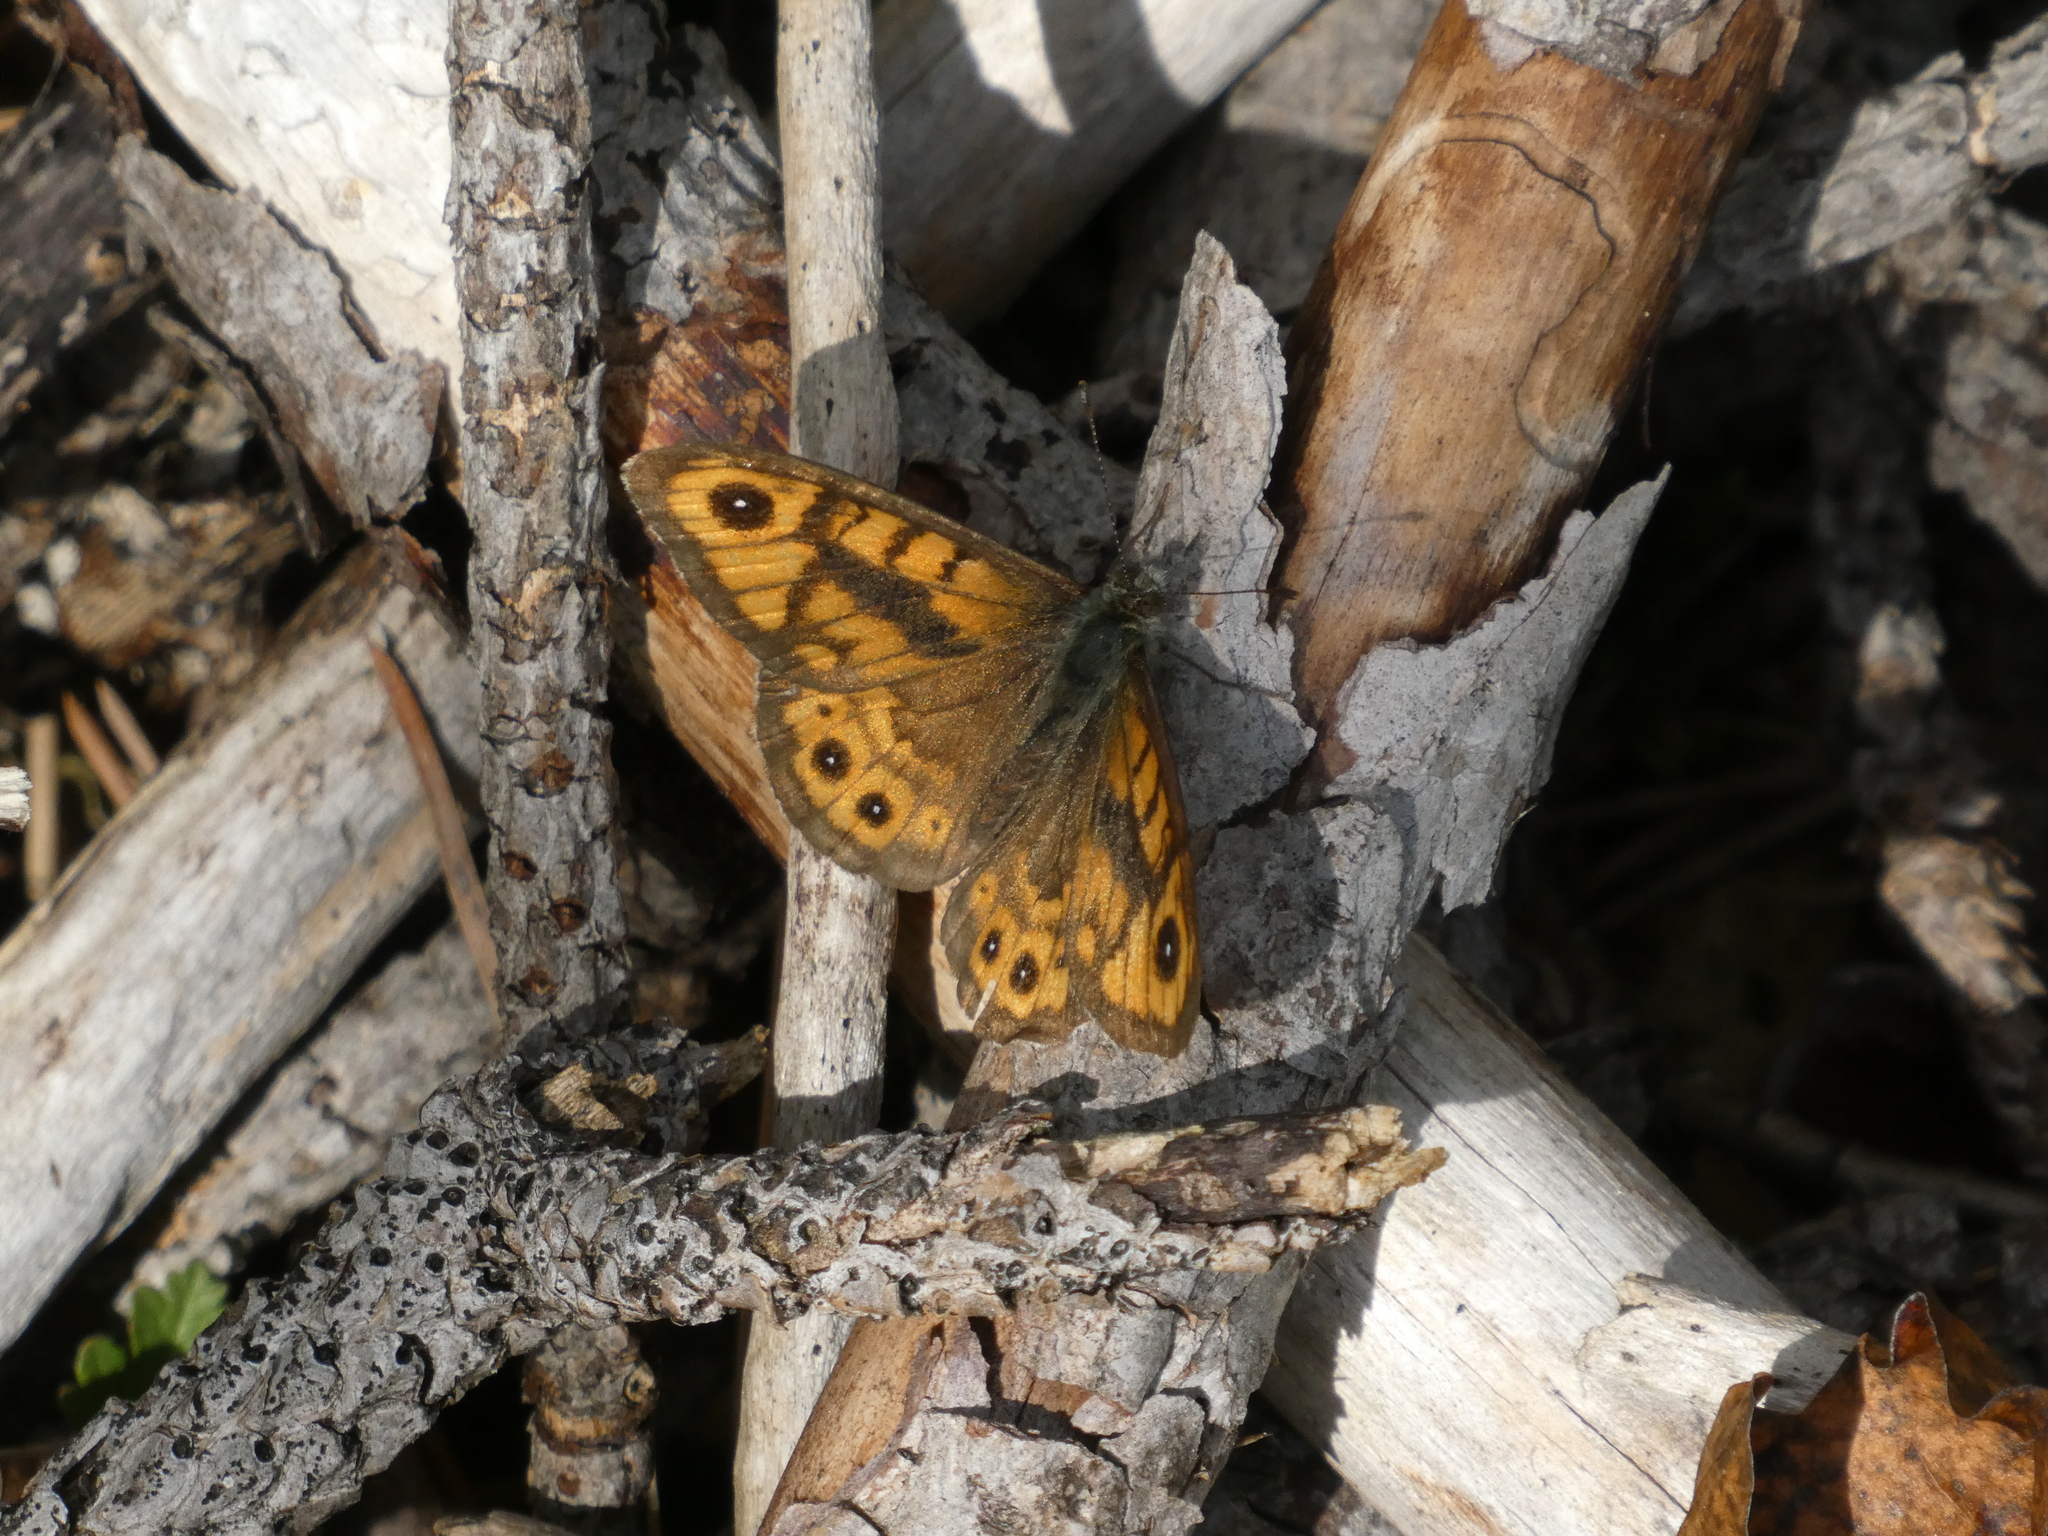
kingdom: Animalia
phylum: Arthropoda
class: Insecta
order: Lepidoptera
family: Nymphalidae
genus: Pararge
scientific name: Pararge Lasiommata megera
